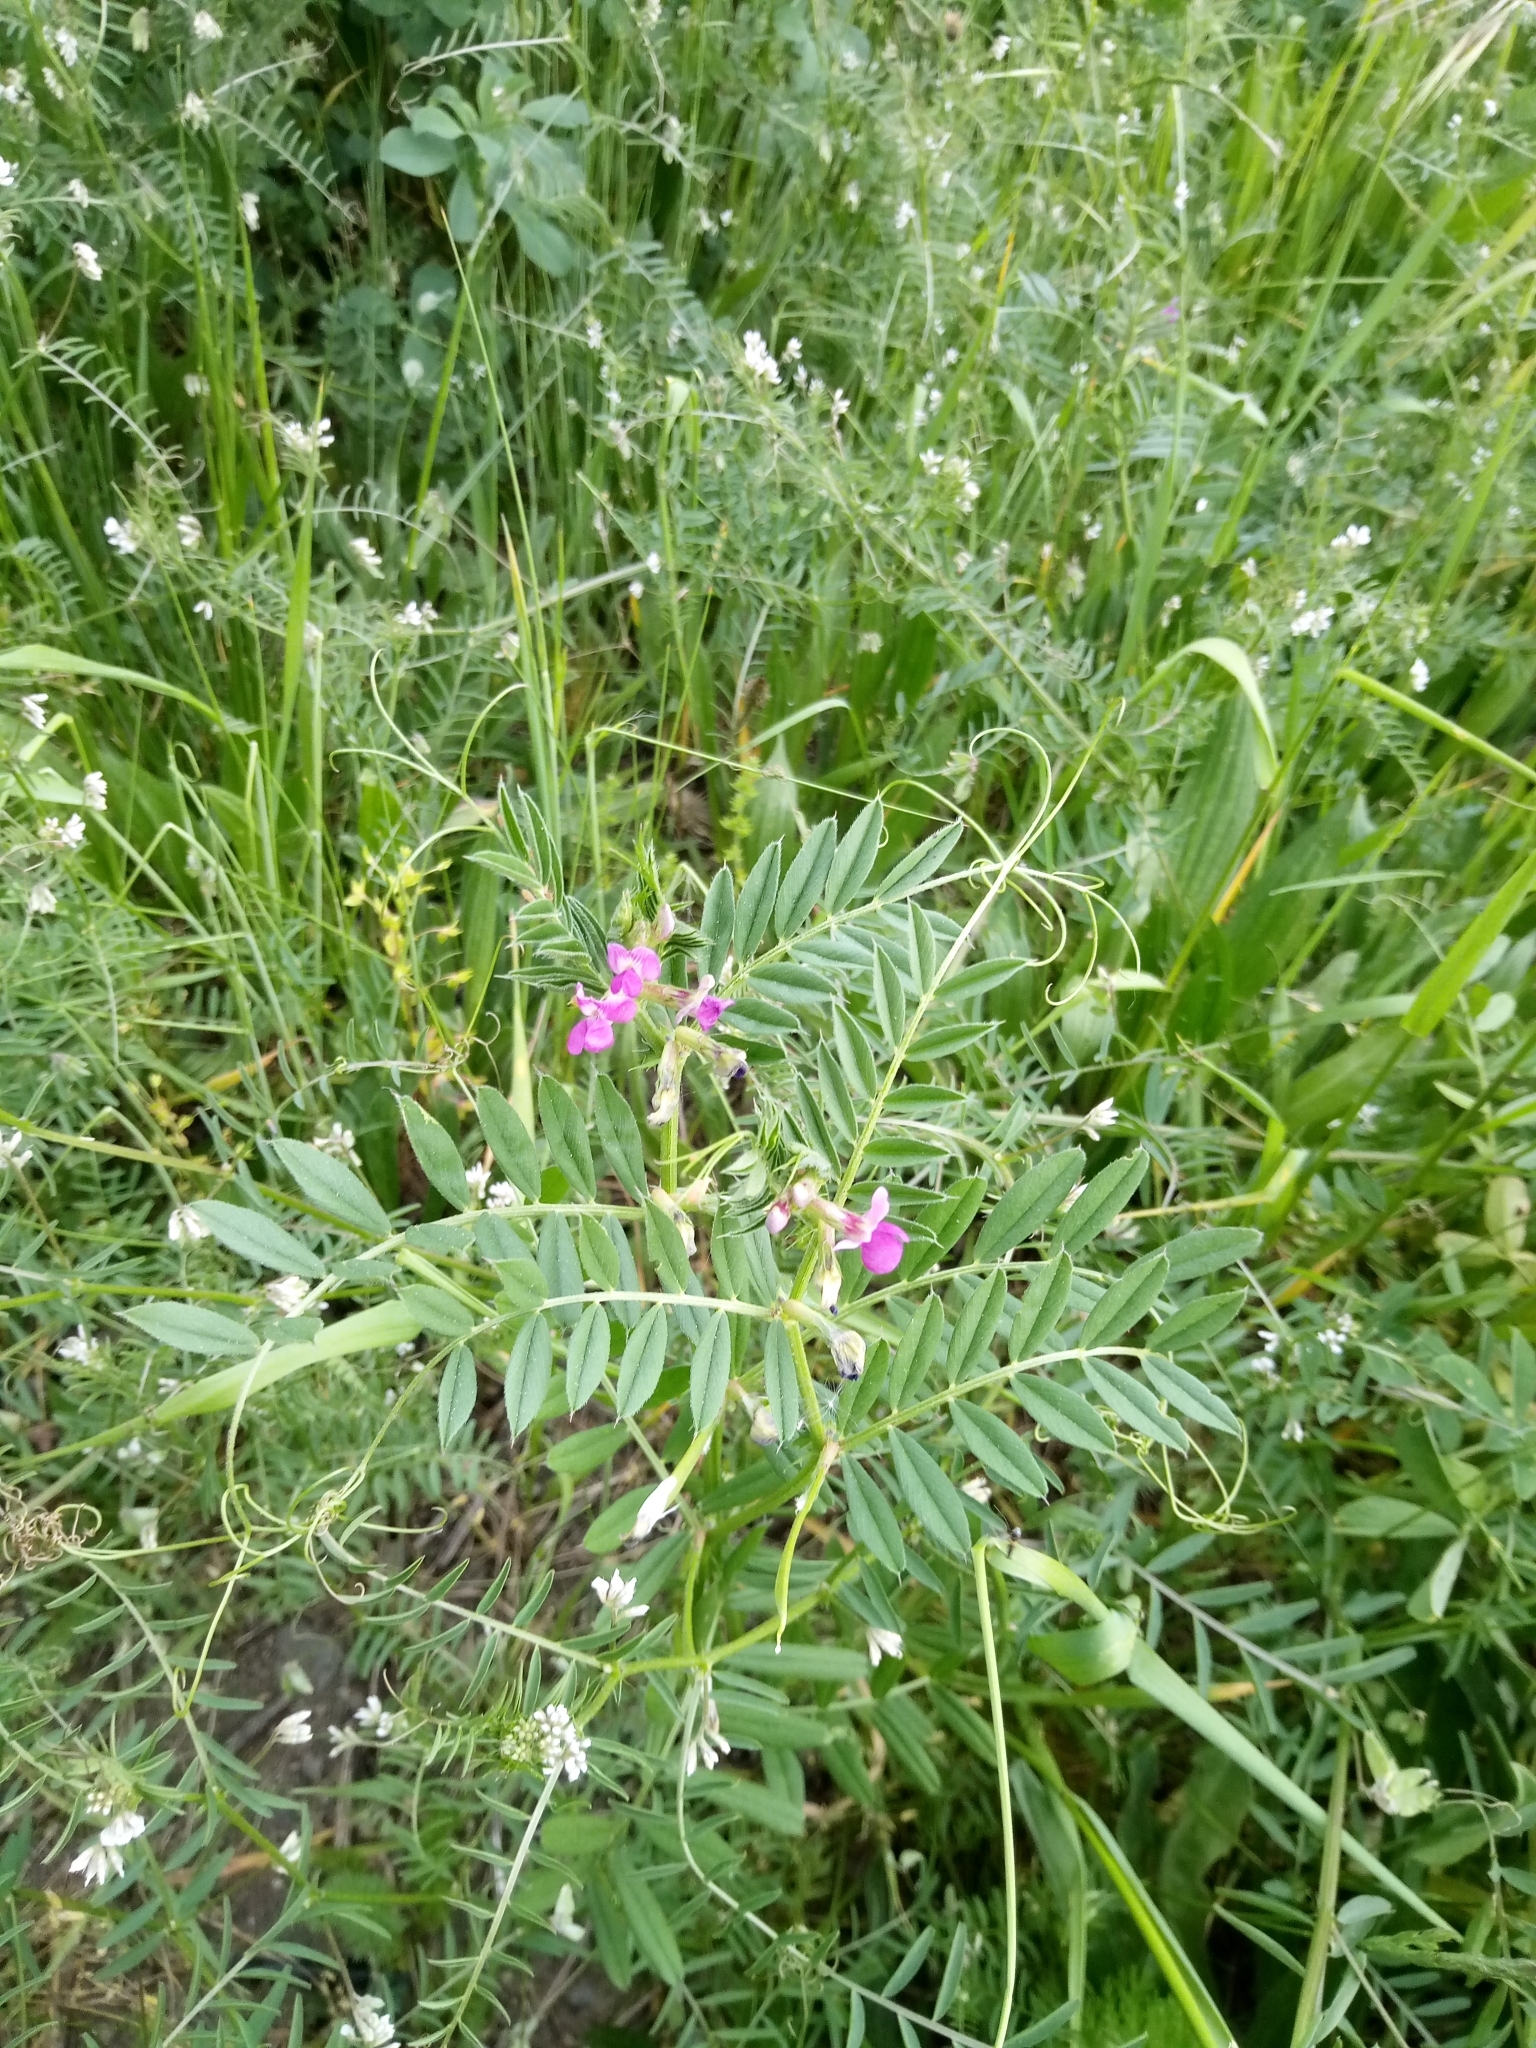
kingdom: Plantae
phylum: Tracheophyta
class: Magnoliopsida
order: Fabales
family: Fabaceae
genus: Vicia
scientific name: Vicia sativa
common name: Garden vetch
